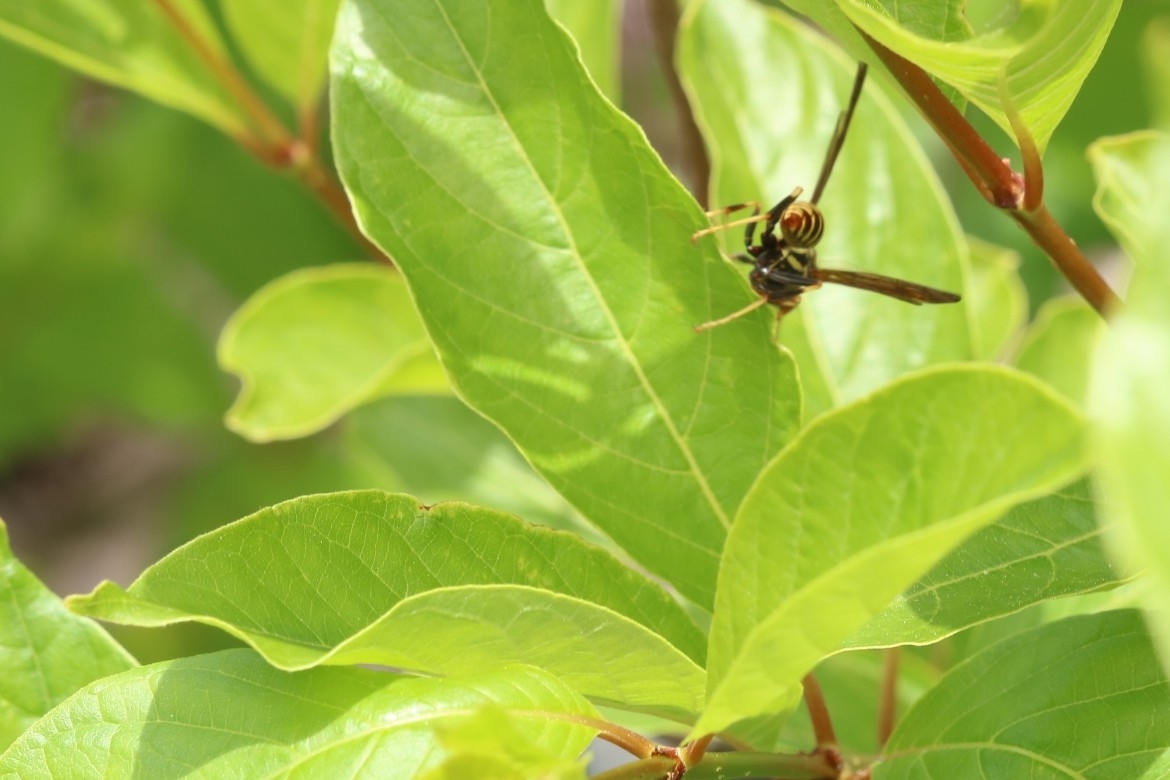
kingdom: Animalia
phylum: Arthropoda
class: Insecta
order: Hymenoptera
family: Eumenidae
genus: Polistes
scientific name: Polistes exclamans
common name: Paper wasp
